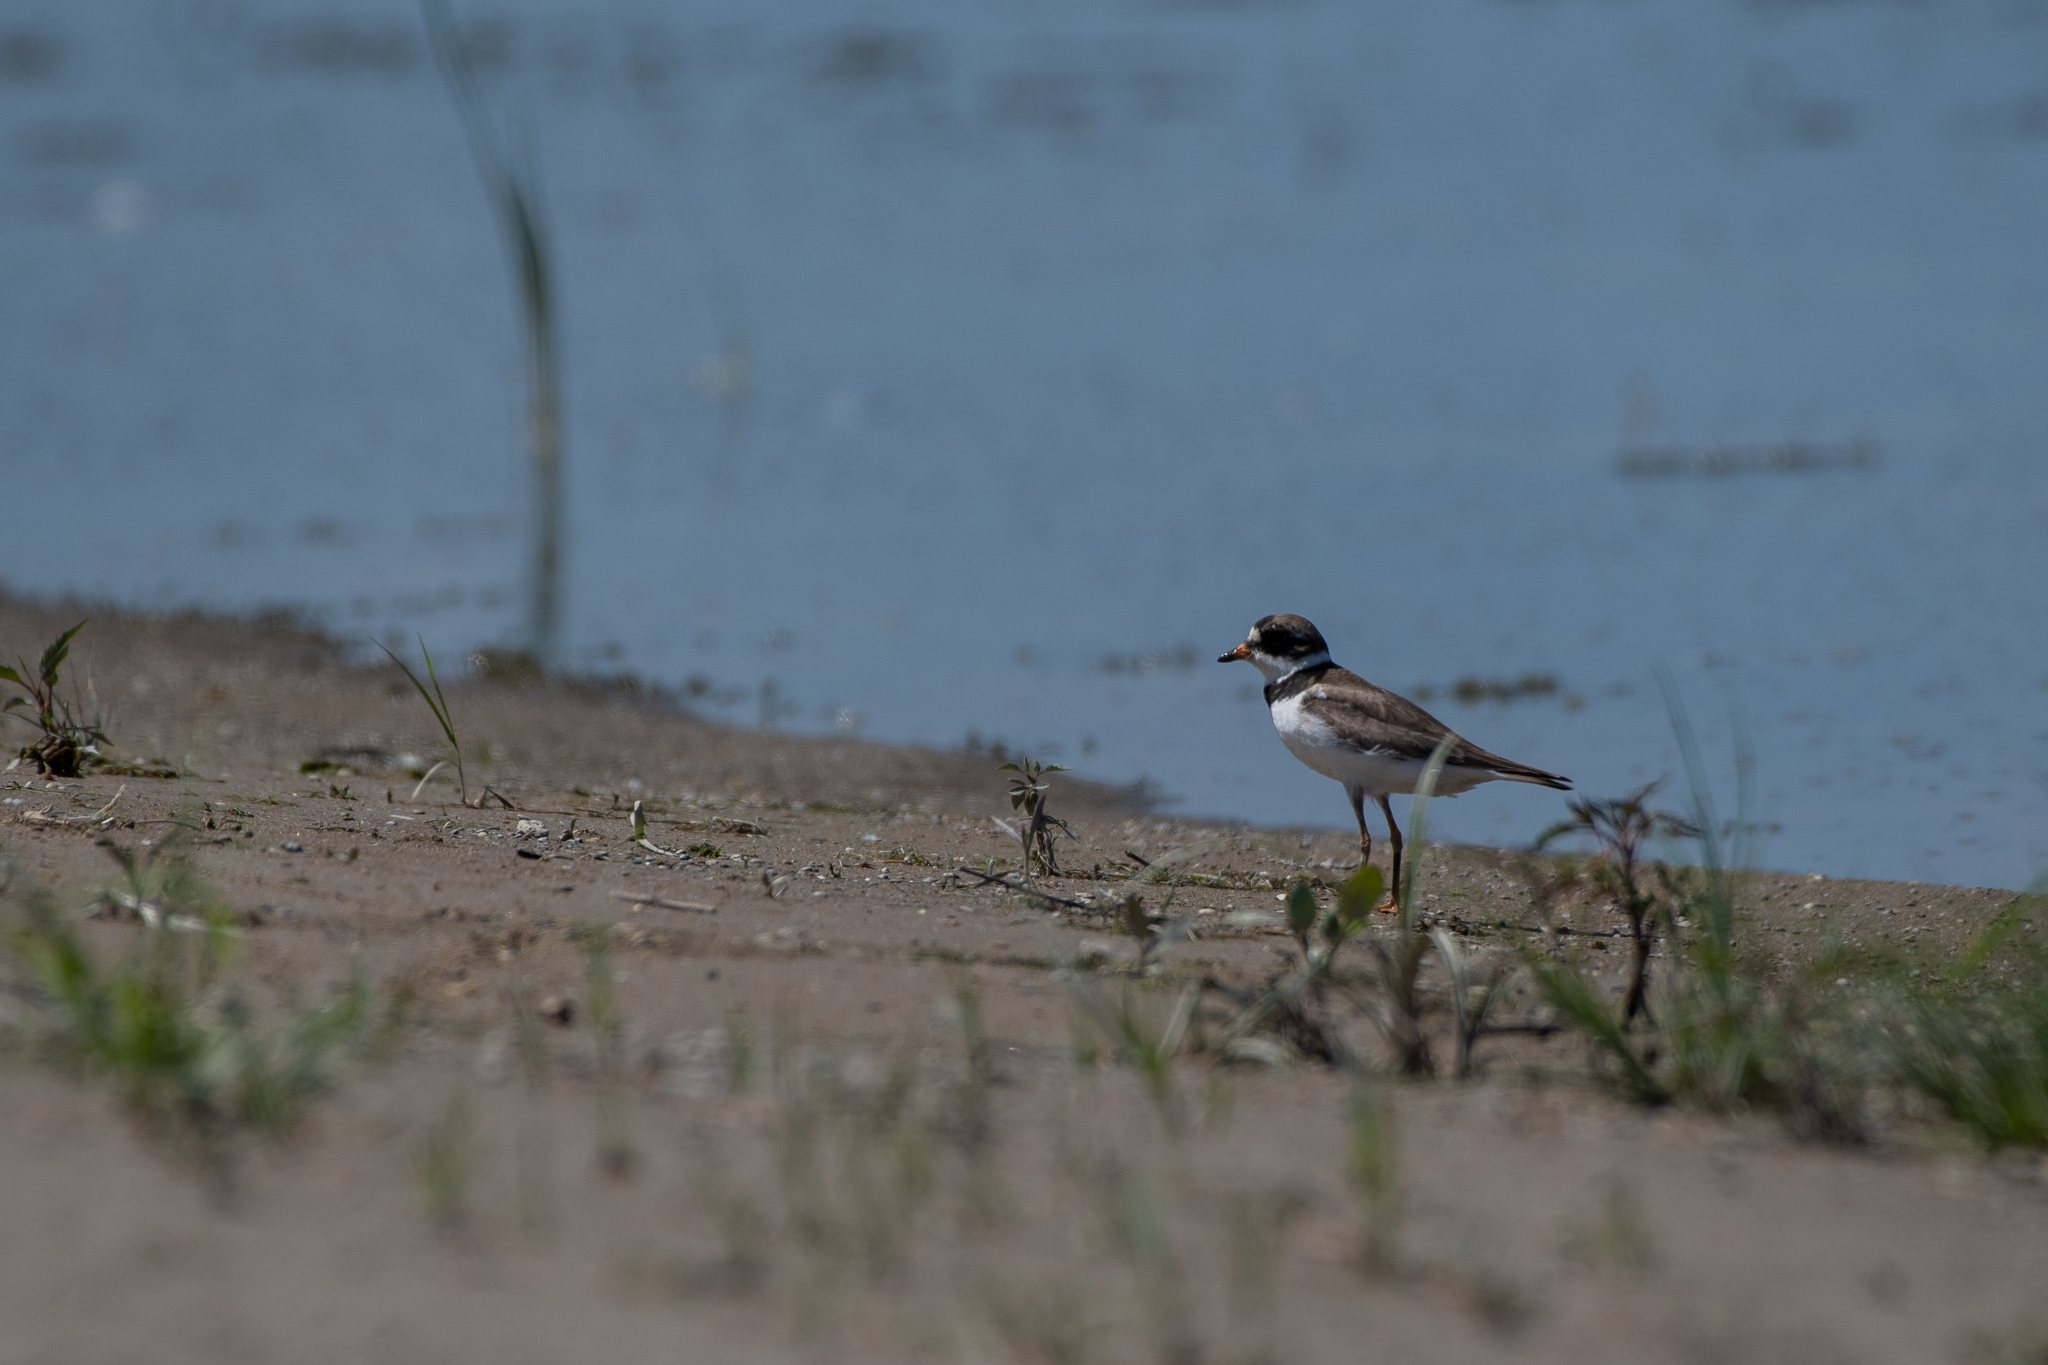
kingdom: Animalia
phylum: Chordata
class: Aves
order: Charadriiformes
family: Charadriidae
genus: Charadrius
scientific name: Charadrius semipalmatus
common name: Semipalmated plover
